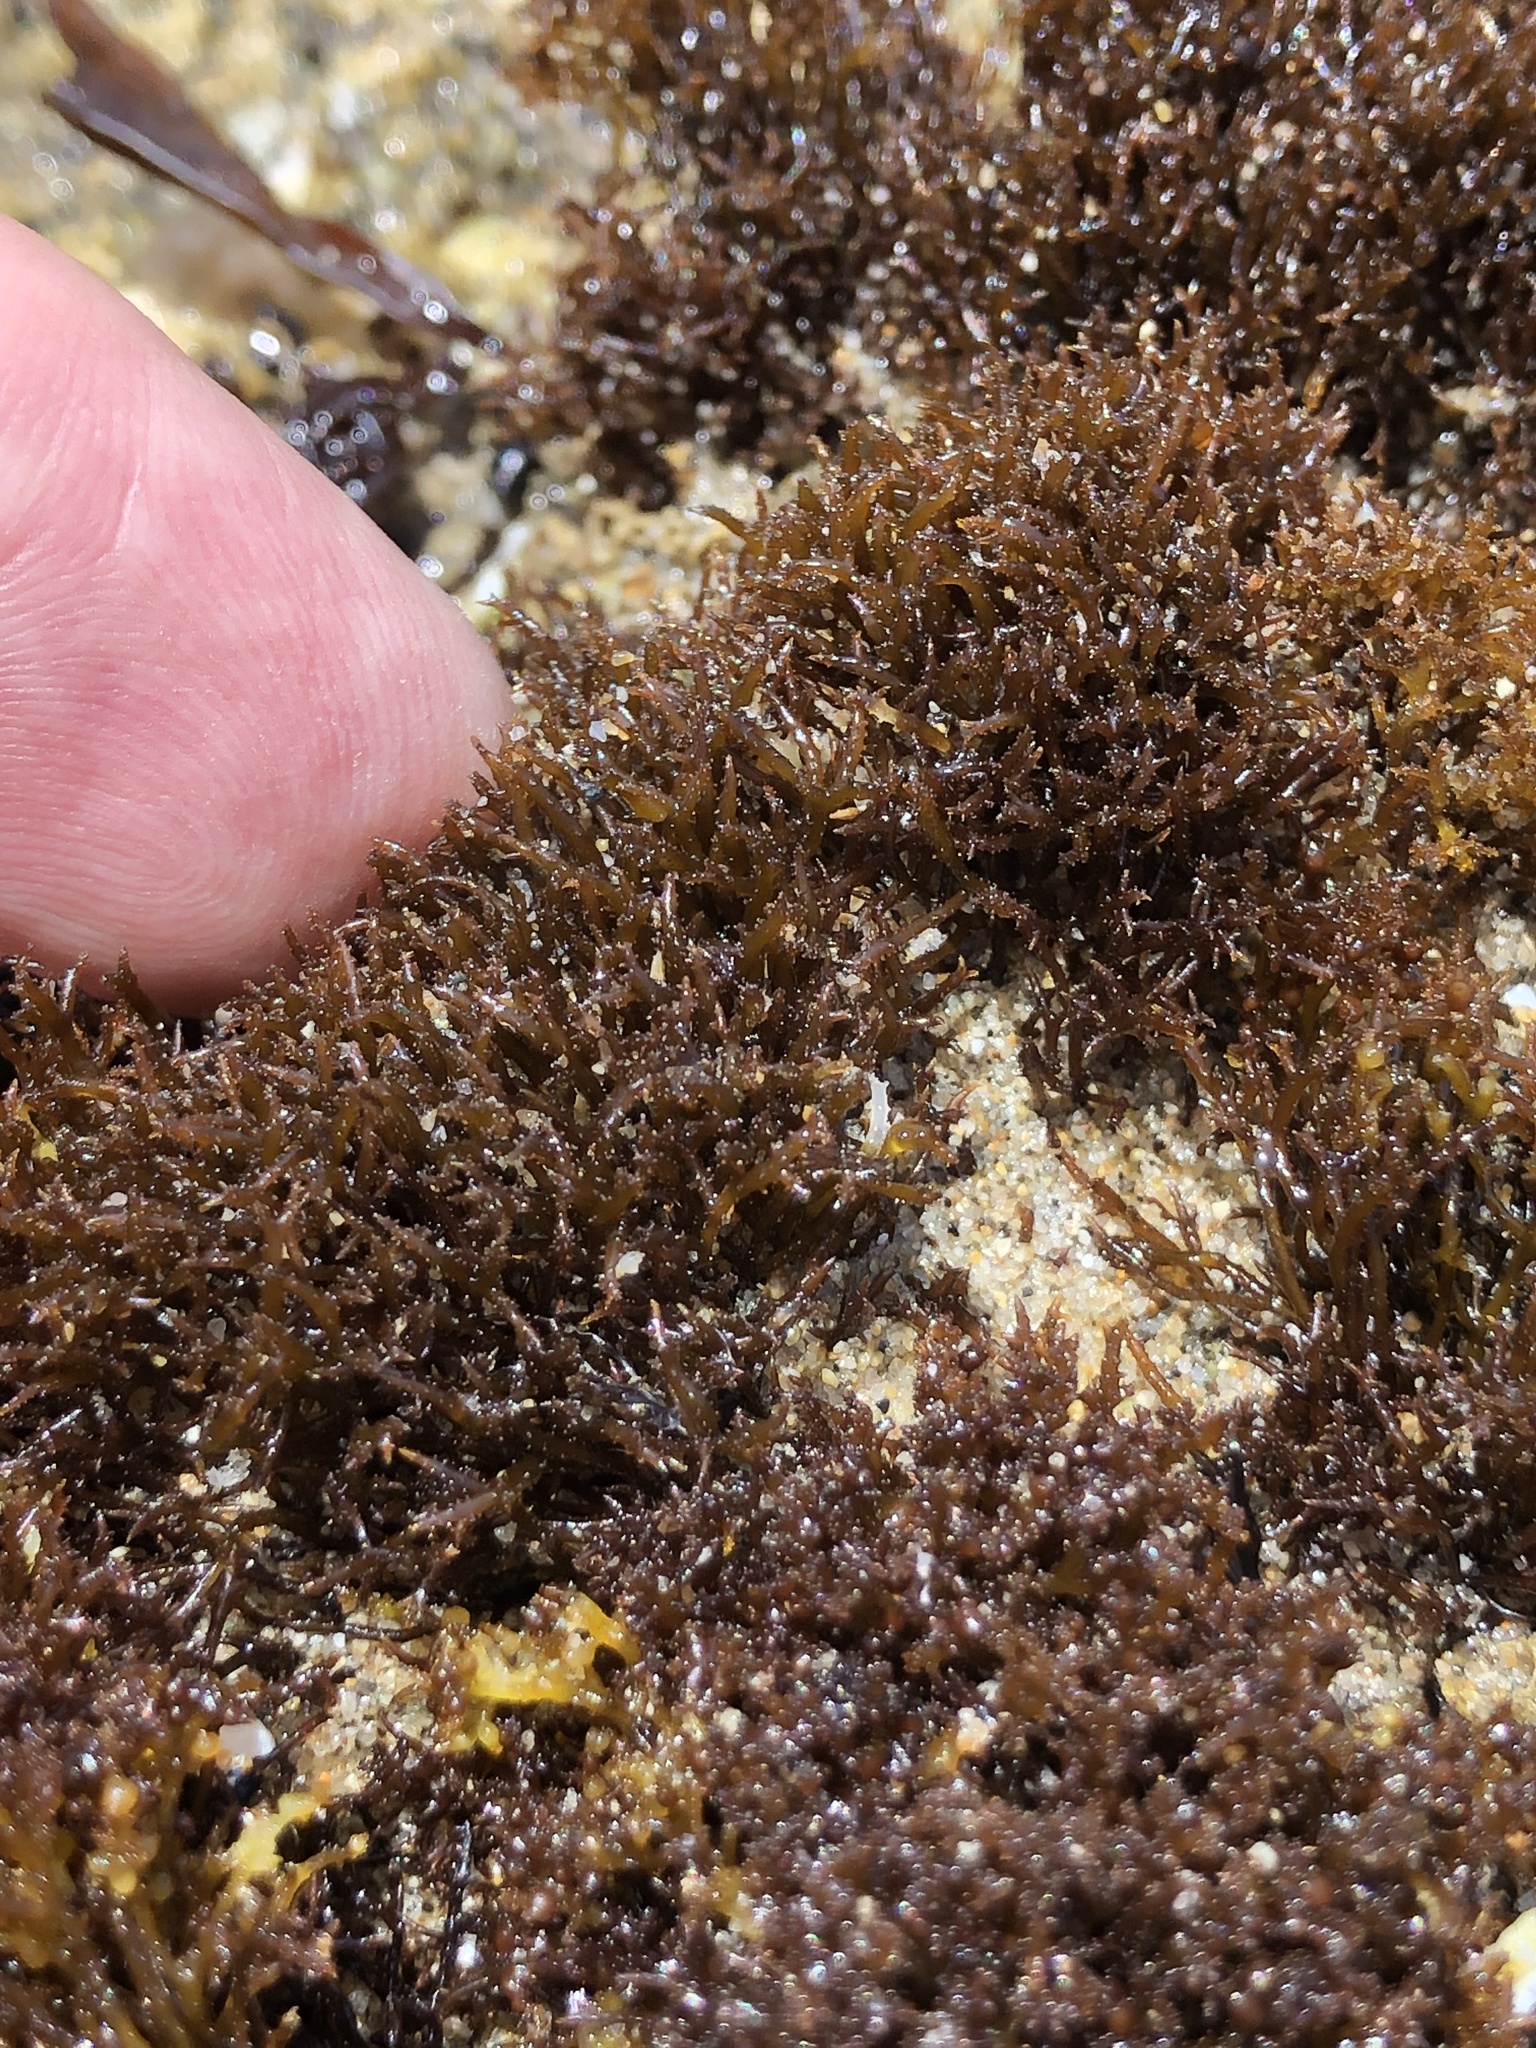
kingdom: Plantae
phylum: Rhodophyta
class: Florideophyceae
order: Gigartinales
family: Endocladiaceae
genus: Endocladia
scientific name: Endocladia muricata
